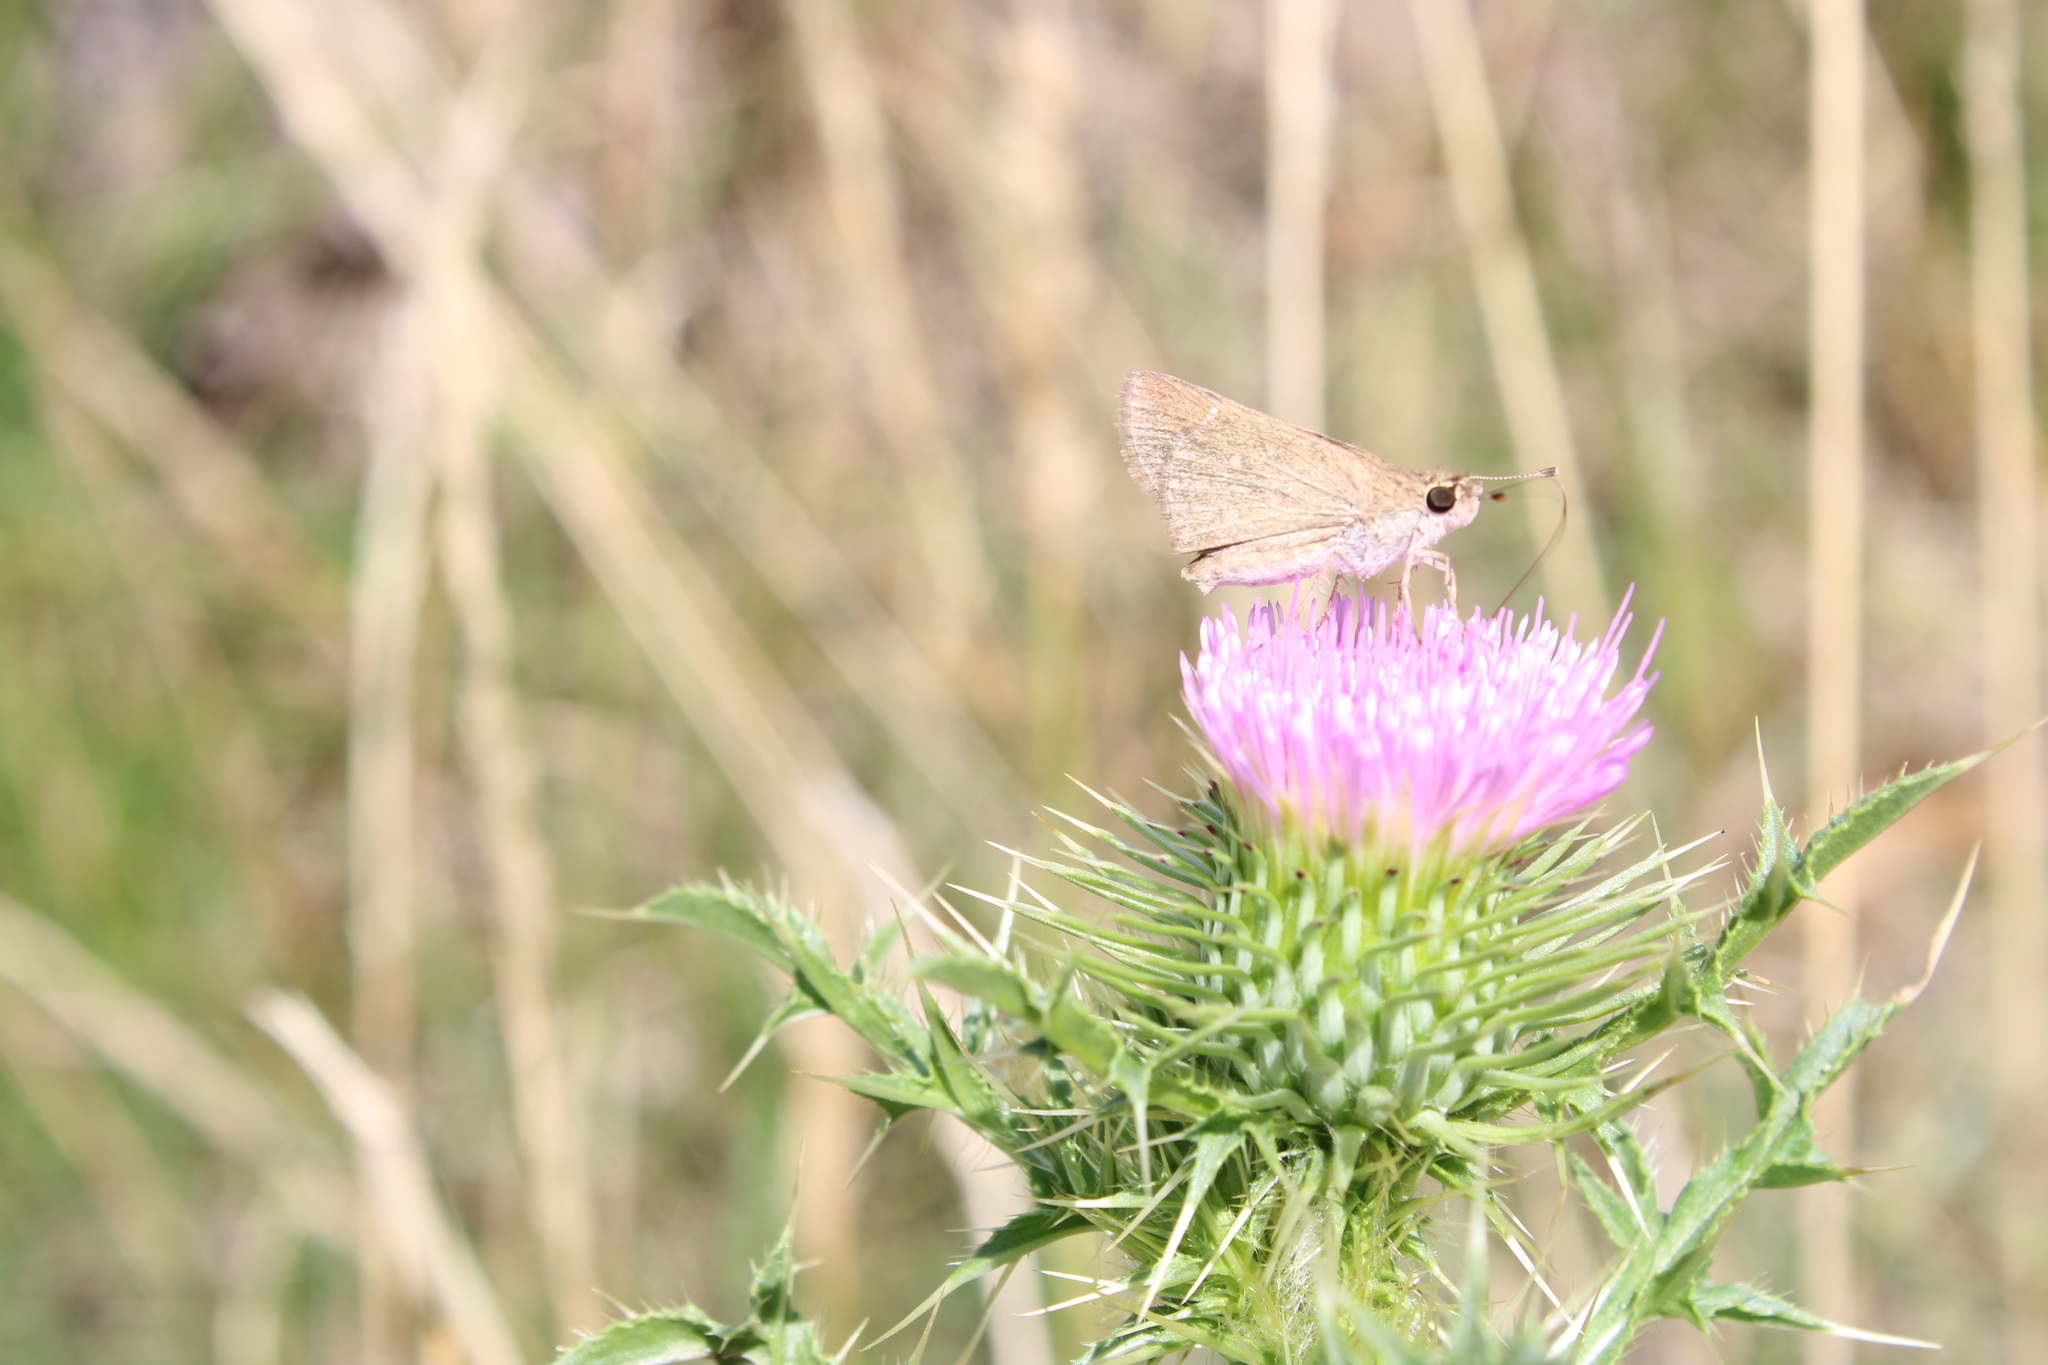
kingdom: Animalia
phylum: Arthropoda
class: Insecta
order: Lepidoptera
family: Hesperiidae
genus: Lerodea
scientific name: Lerodea eufala
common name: Eufala skipper
